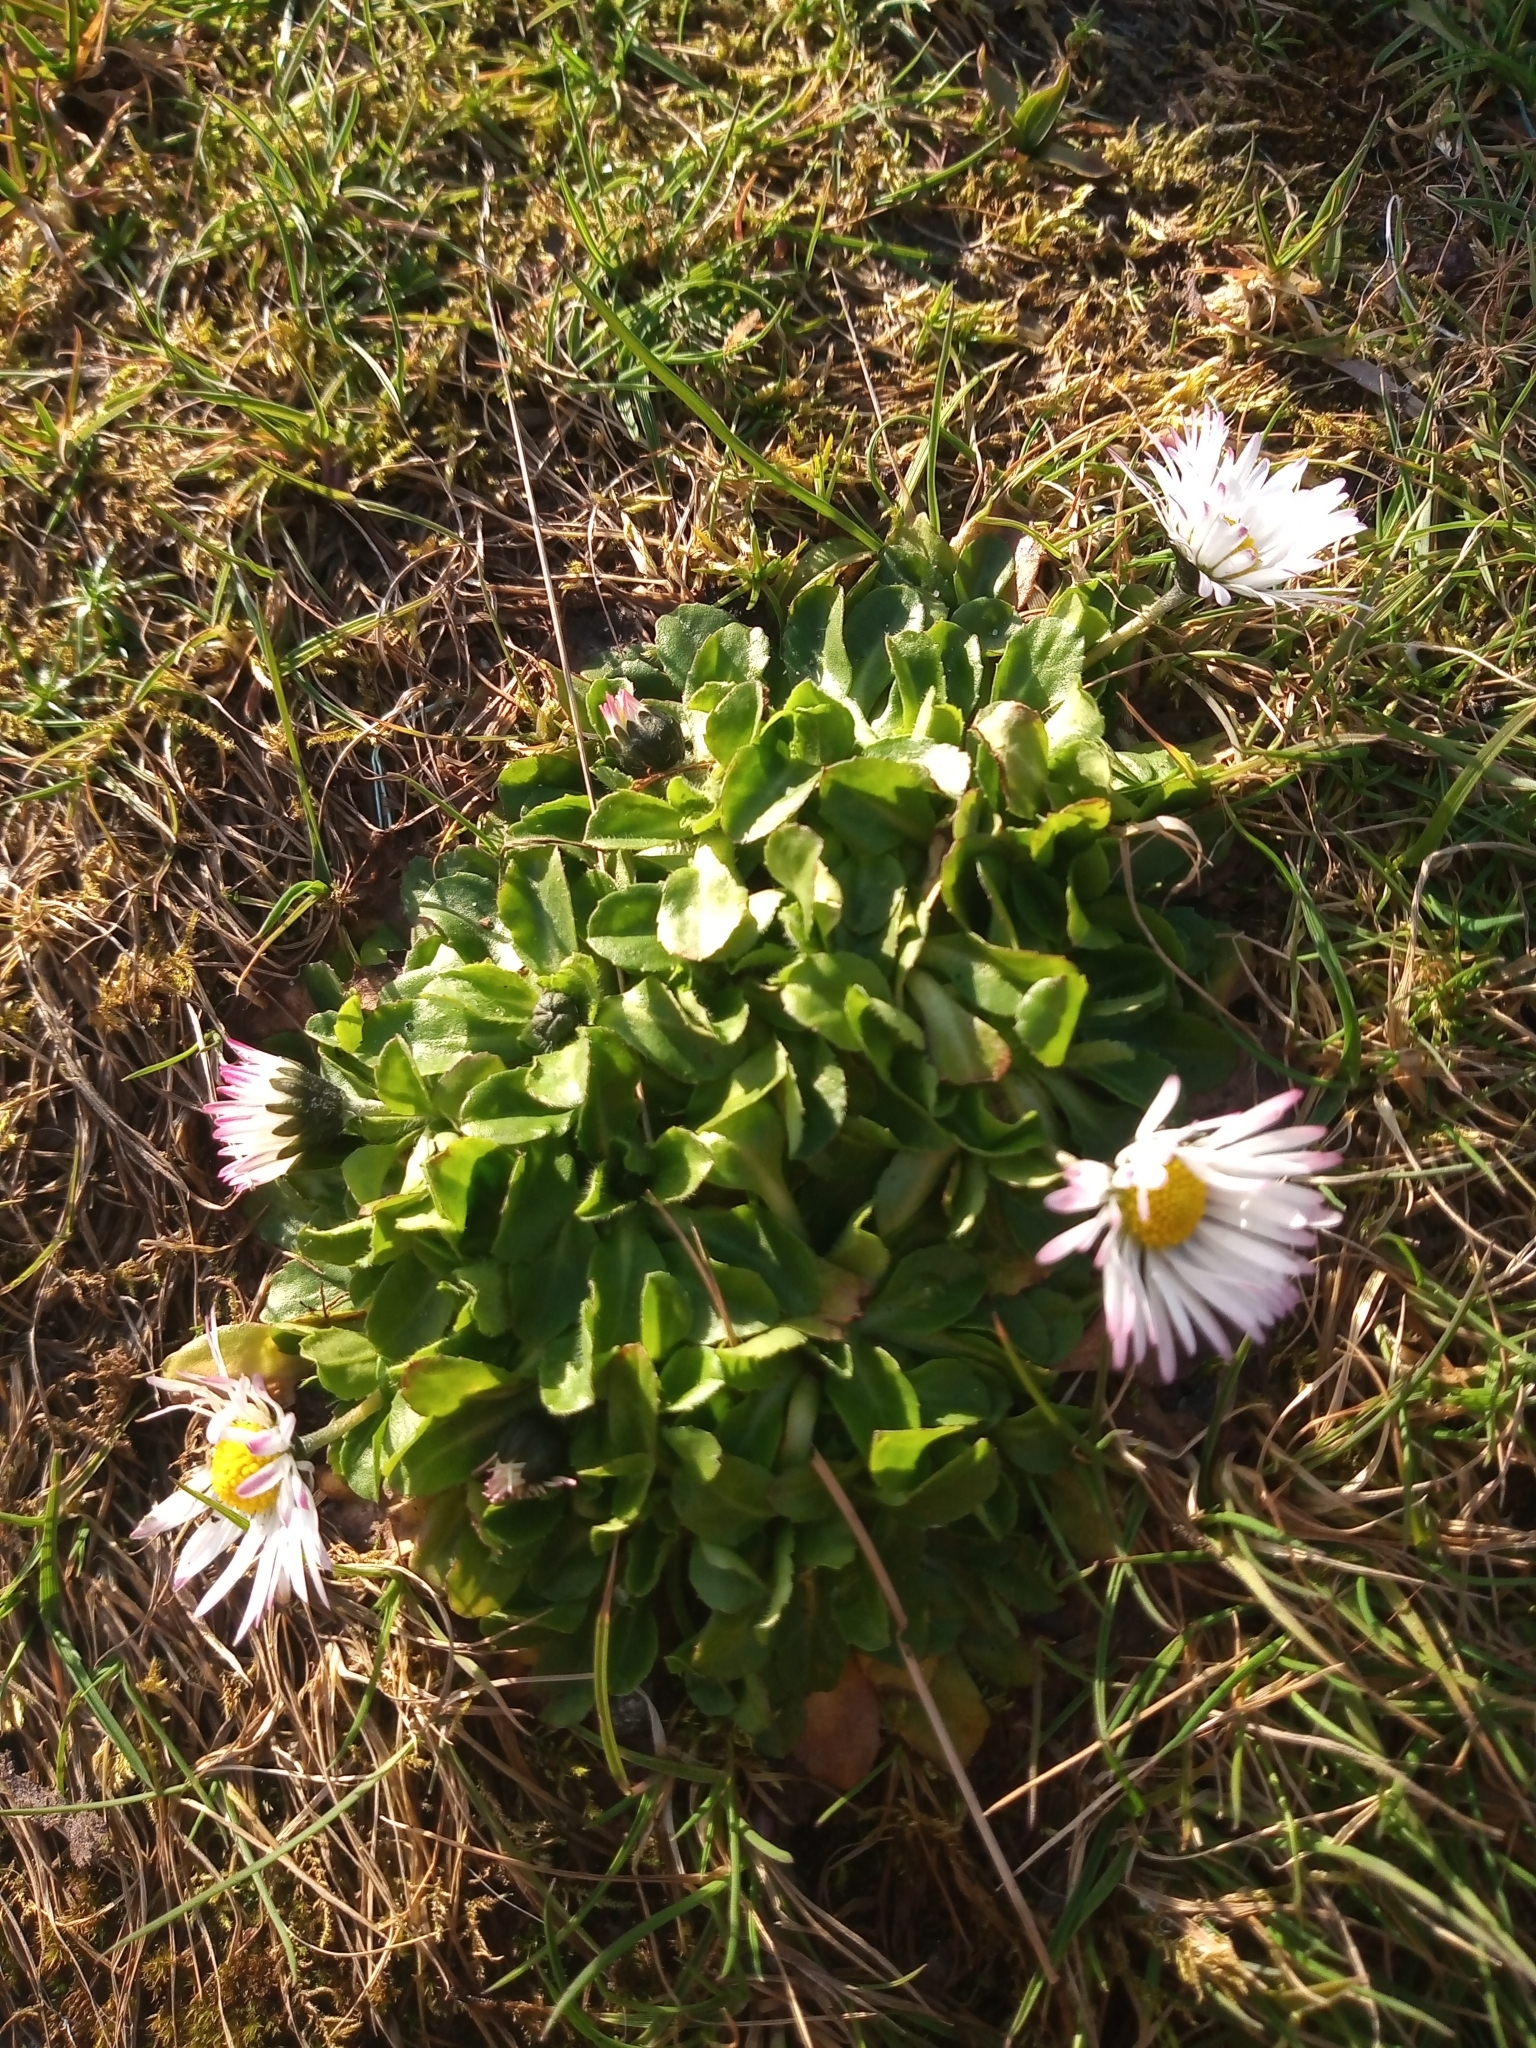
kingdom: Plantae
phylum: Tracheophyta
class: Magnoliopsida
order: Asterales
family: Asteraceae
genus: Bellis
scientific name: Bellis perennis
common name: Lawndaisy
